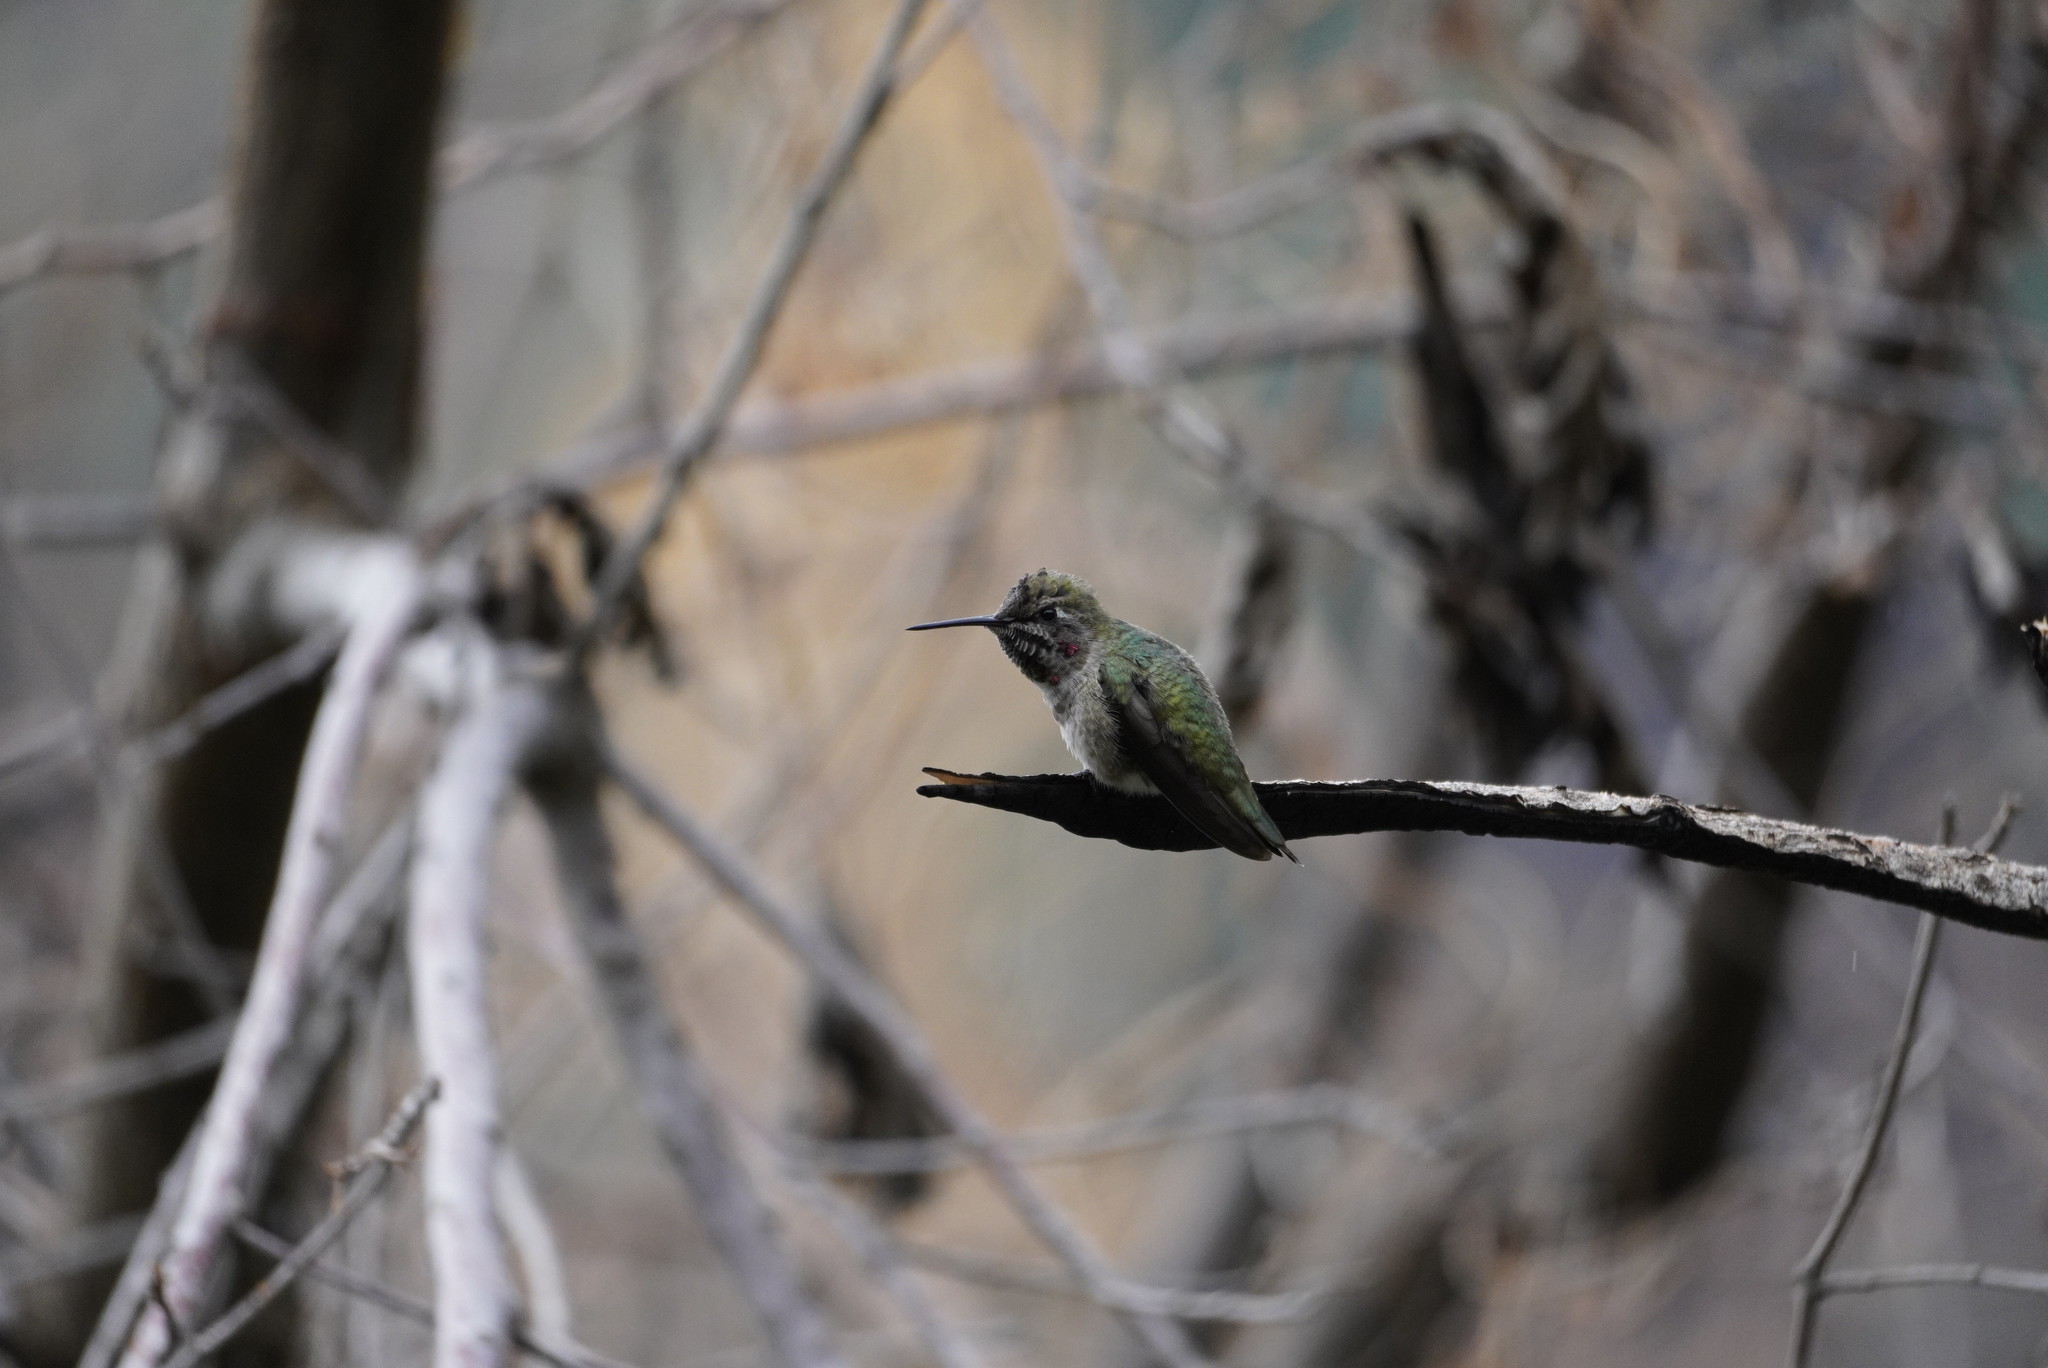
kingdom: Animalia
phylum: Chordata
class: Aves
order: Apodiformes
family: Trochilidae
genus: Calypte
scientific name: Calypte anna
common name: Anna's hummingbird
